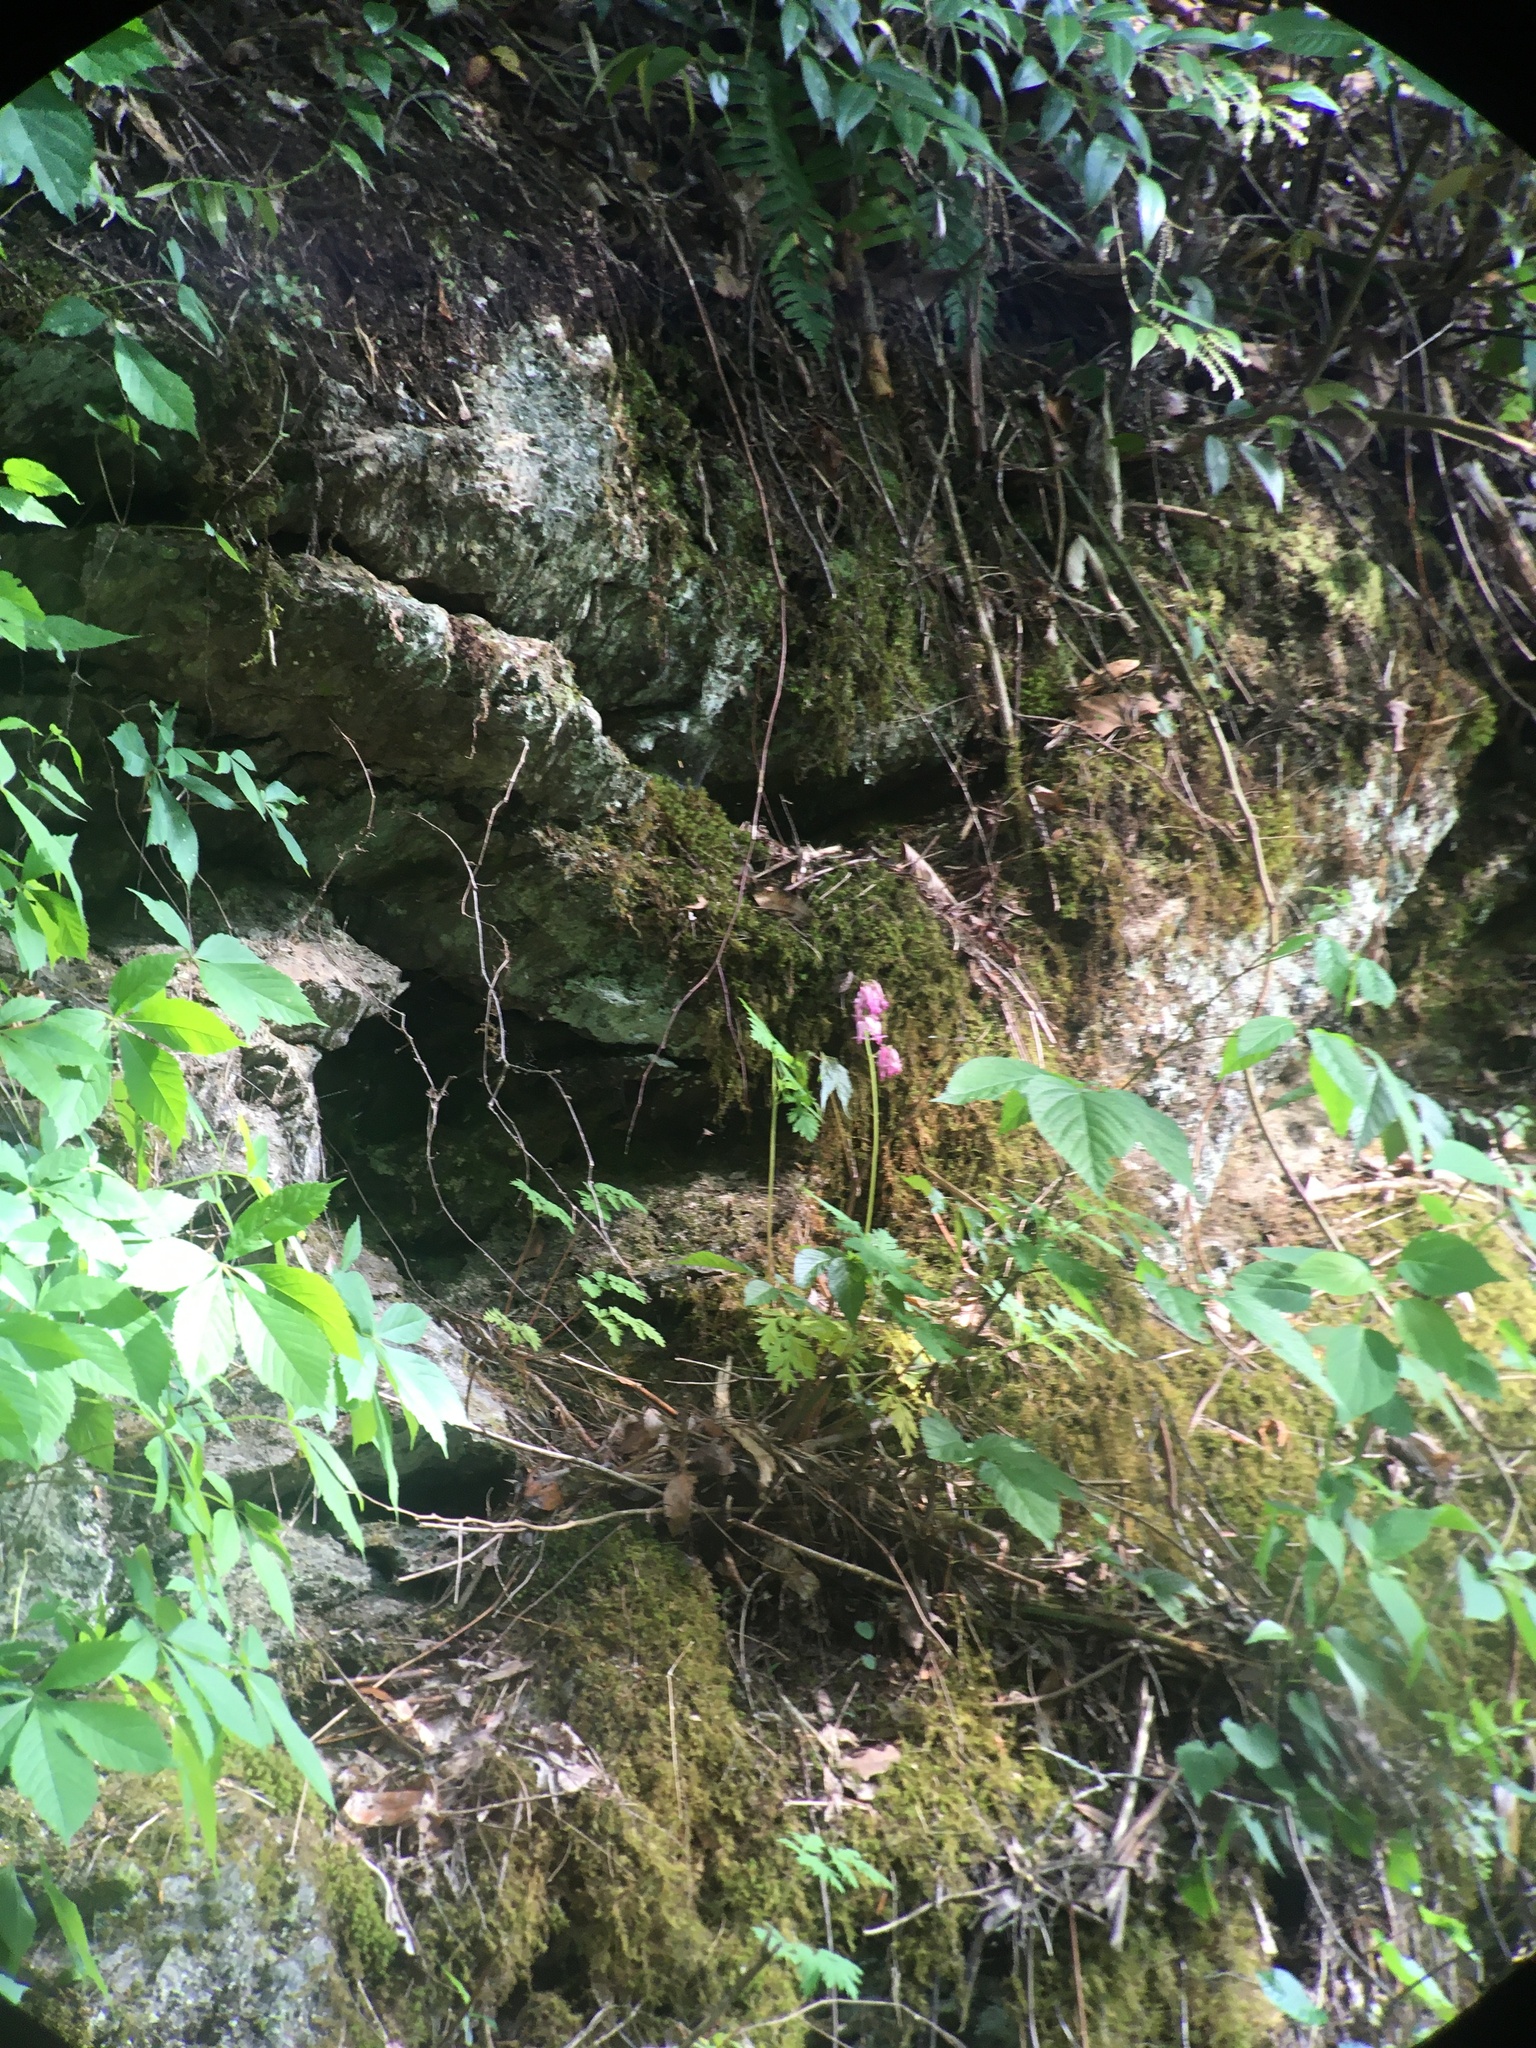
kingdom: Plantae
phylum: Tracheophyta
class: Magnoliopsida
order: Ranunculales
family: Papaveraceae
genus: Dicentra
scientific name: Dicentra eximia
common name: Turkey-corn
